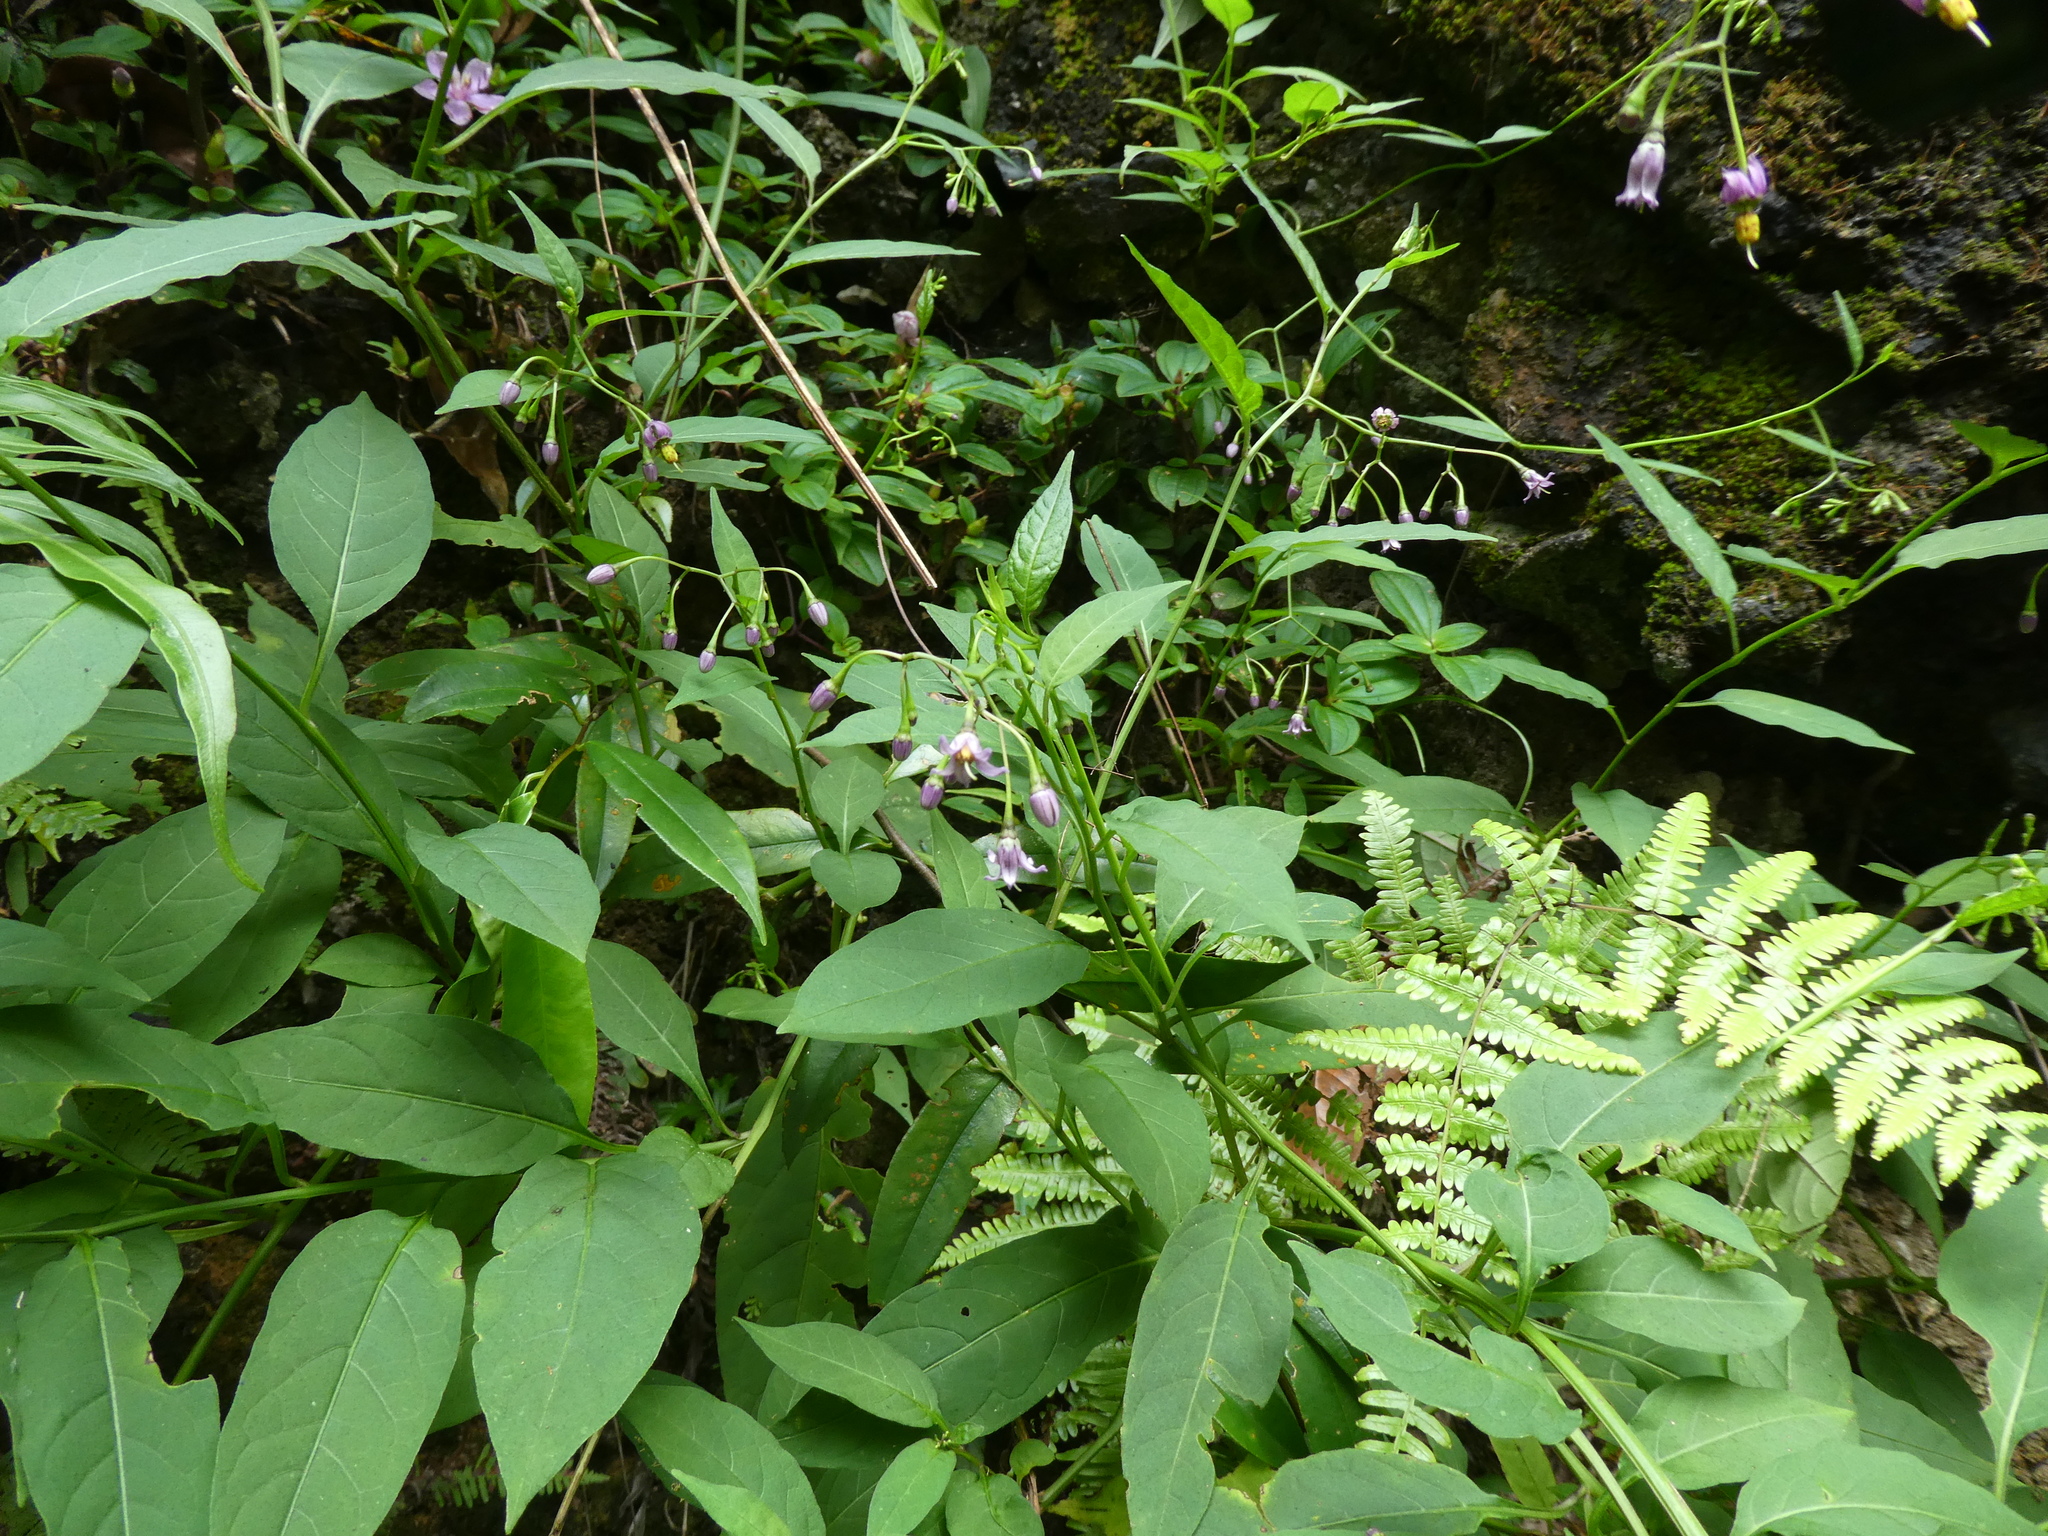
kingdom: Plantae
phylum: Tracheophyta
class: Magnoliopsida
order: Solanales
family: Solanaceae
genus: Solanum
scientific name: Solanum pittosporifolium
